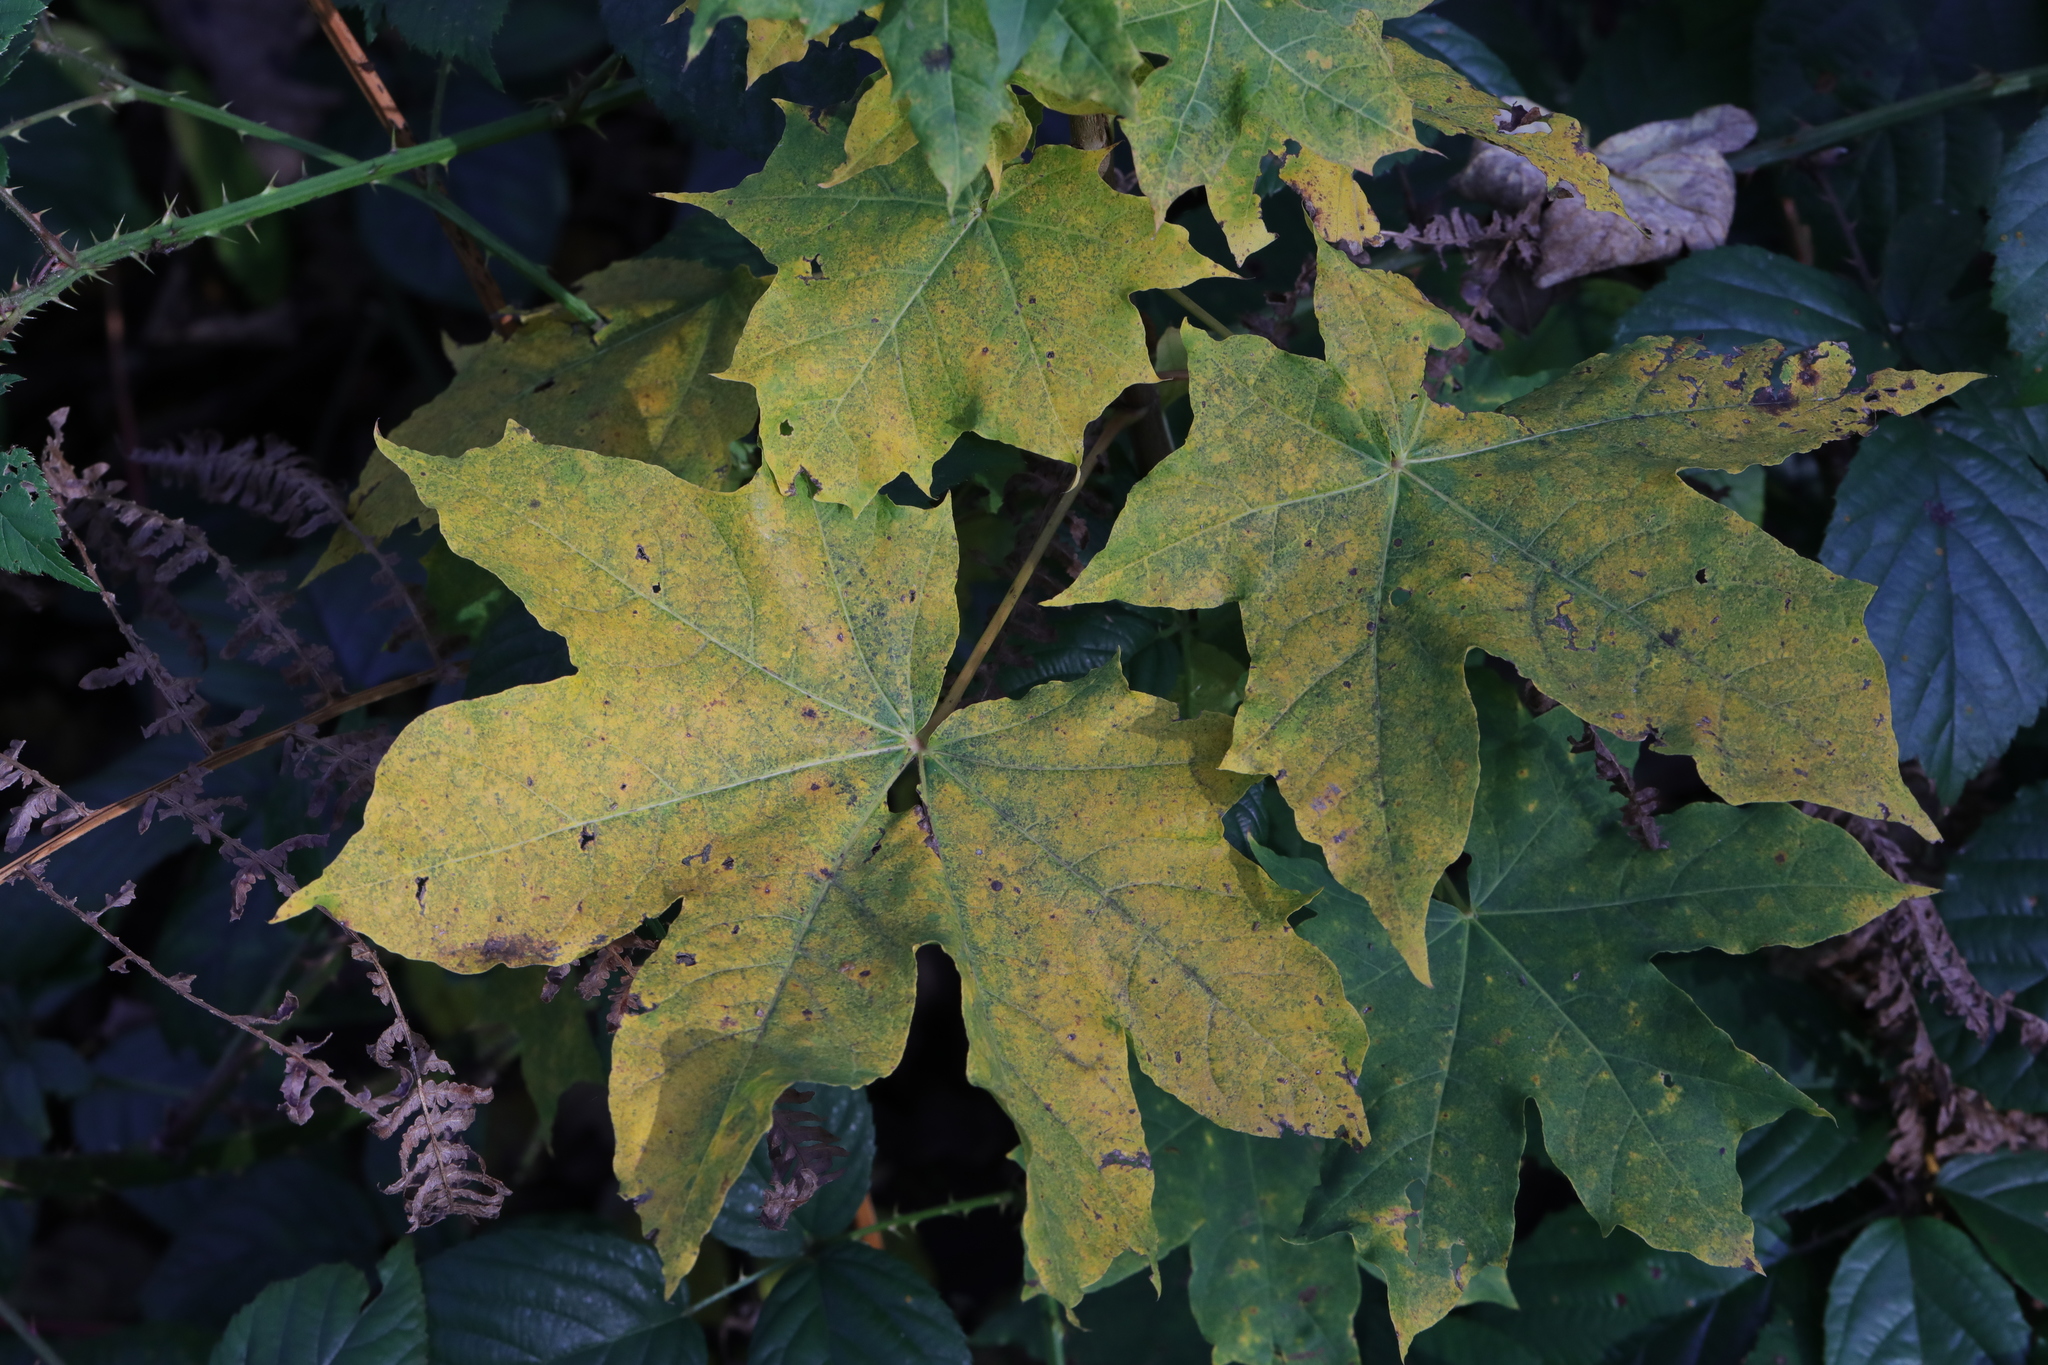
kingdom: Plantae
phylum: Tracheophyta
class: Magnoliopsida
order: Sapindales
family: Sapindaceae
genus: Acer
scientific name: Acer platanoides
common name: Norway maple
